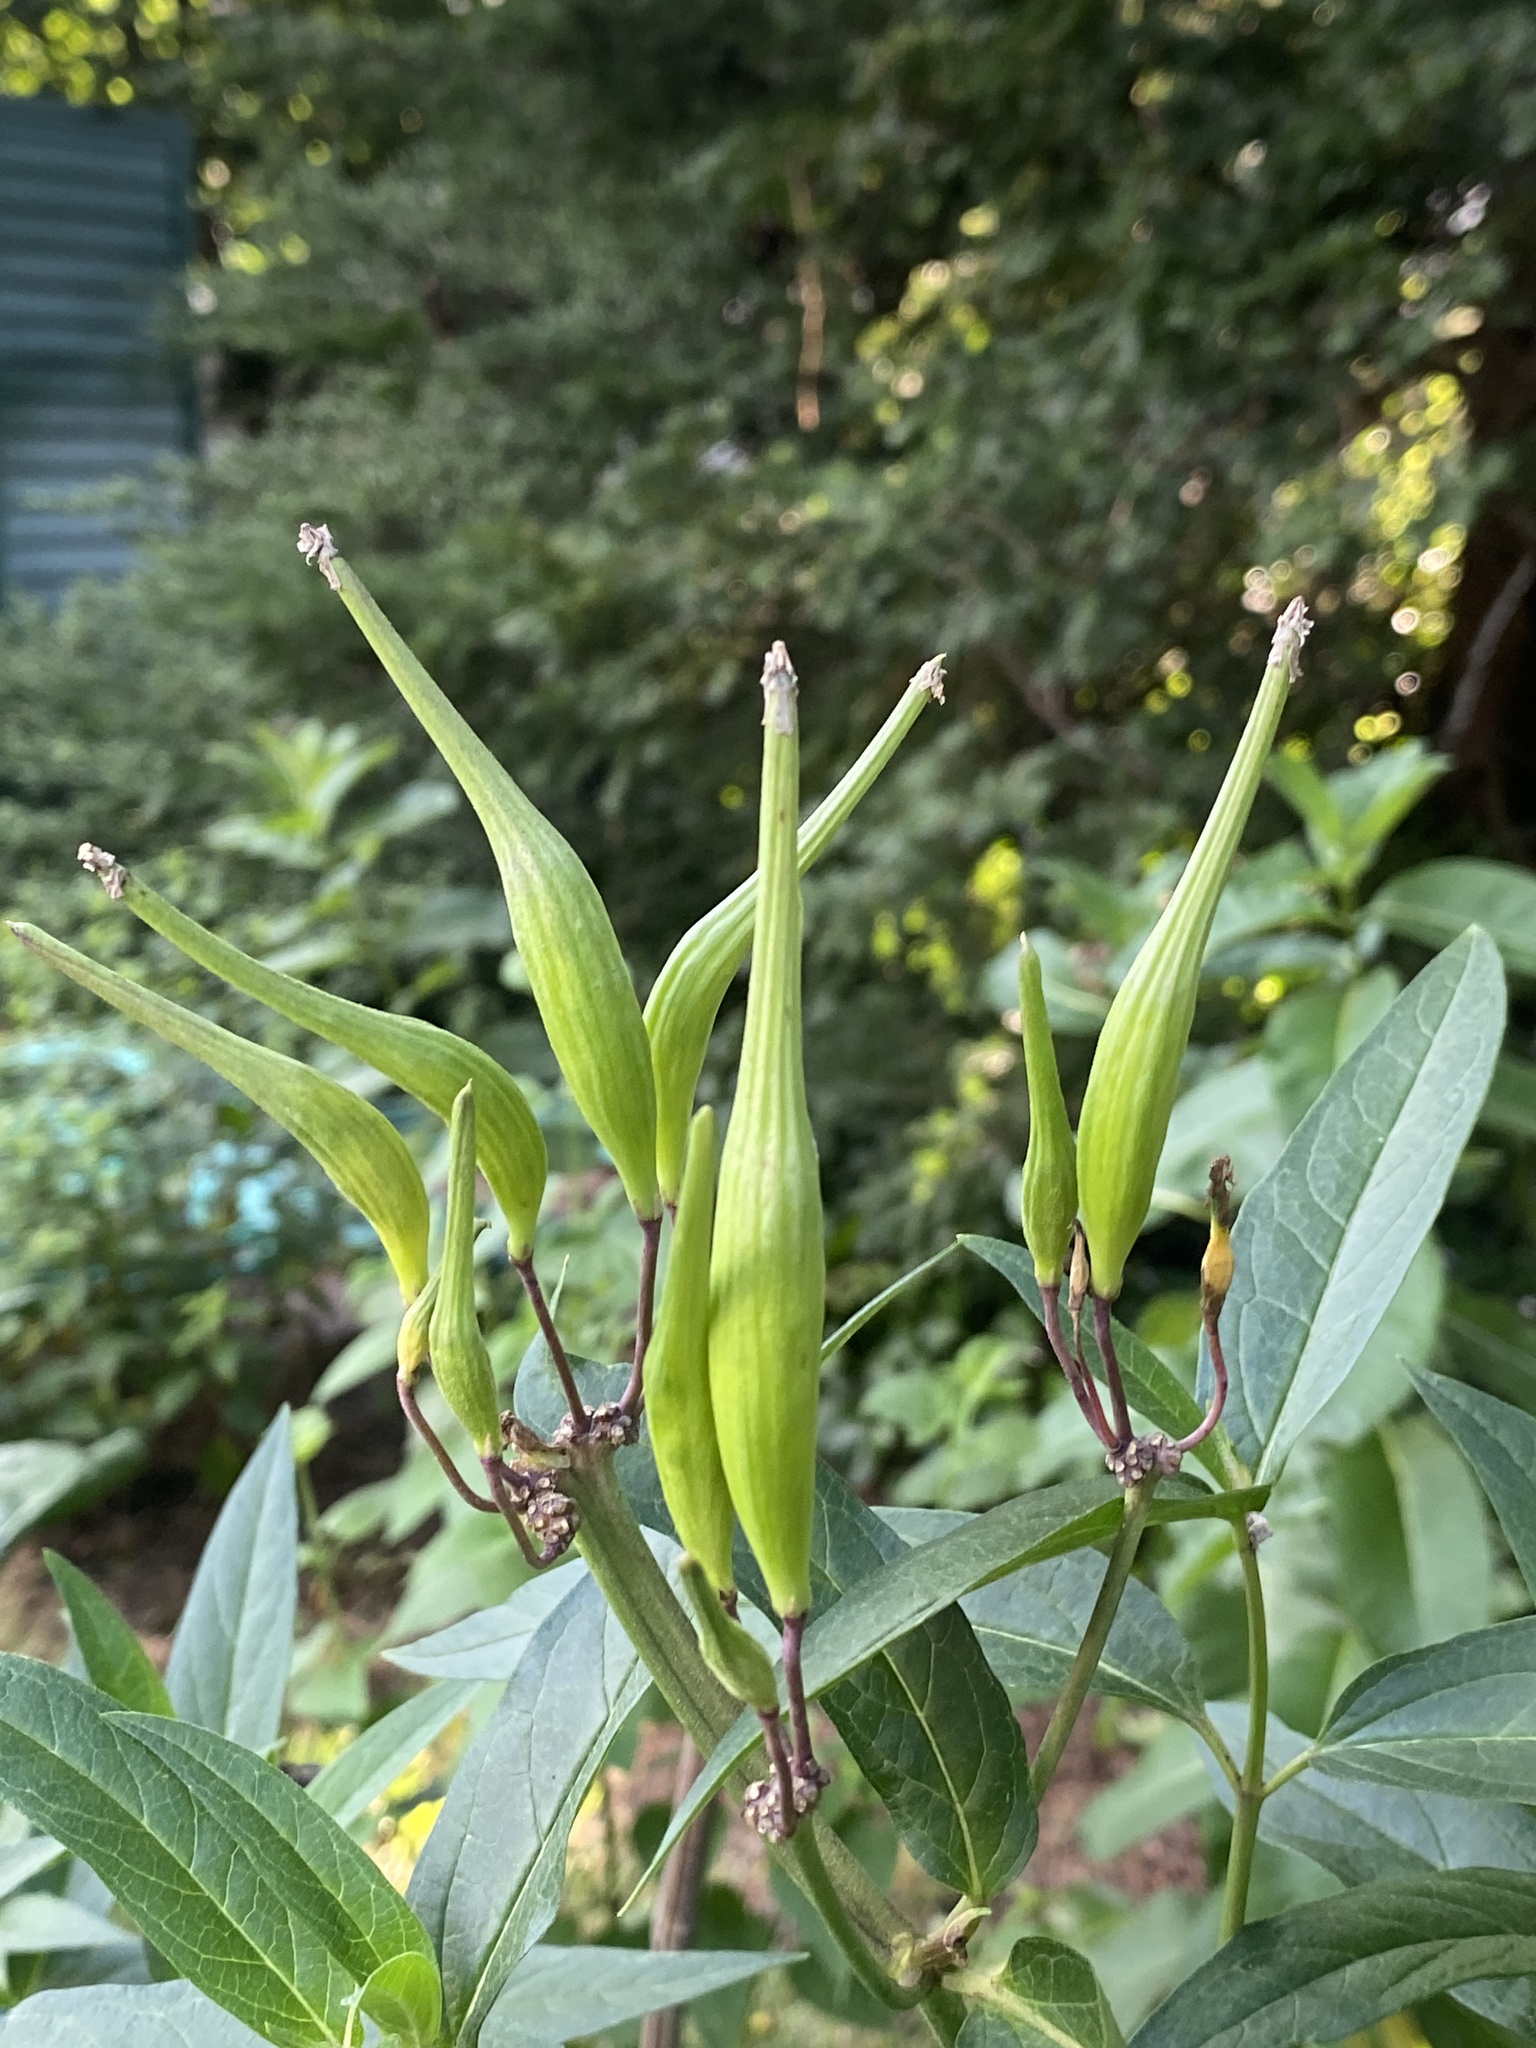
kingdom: Plantae
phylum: Tracheophyta
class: Magnoliopsida
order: Gentianales
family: Apocynaceae
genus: Asclepias
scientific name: Asclepias incarnata
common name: Swamp milkweed
